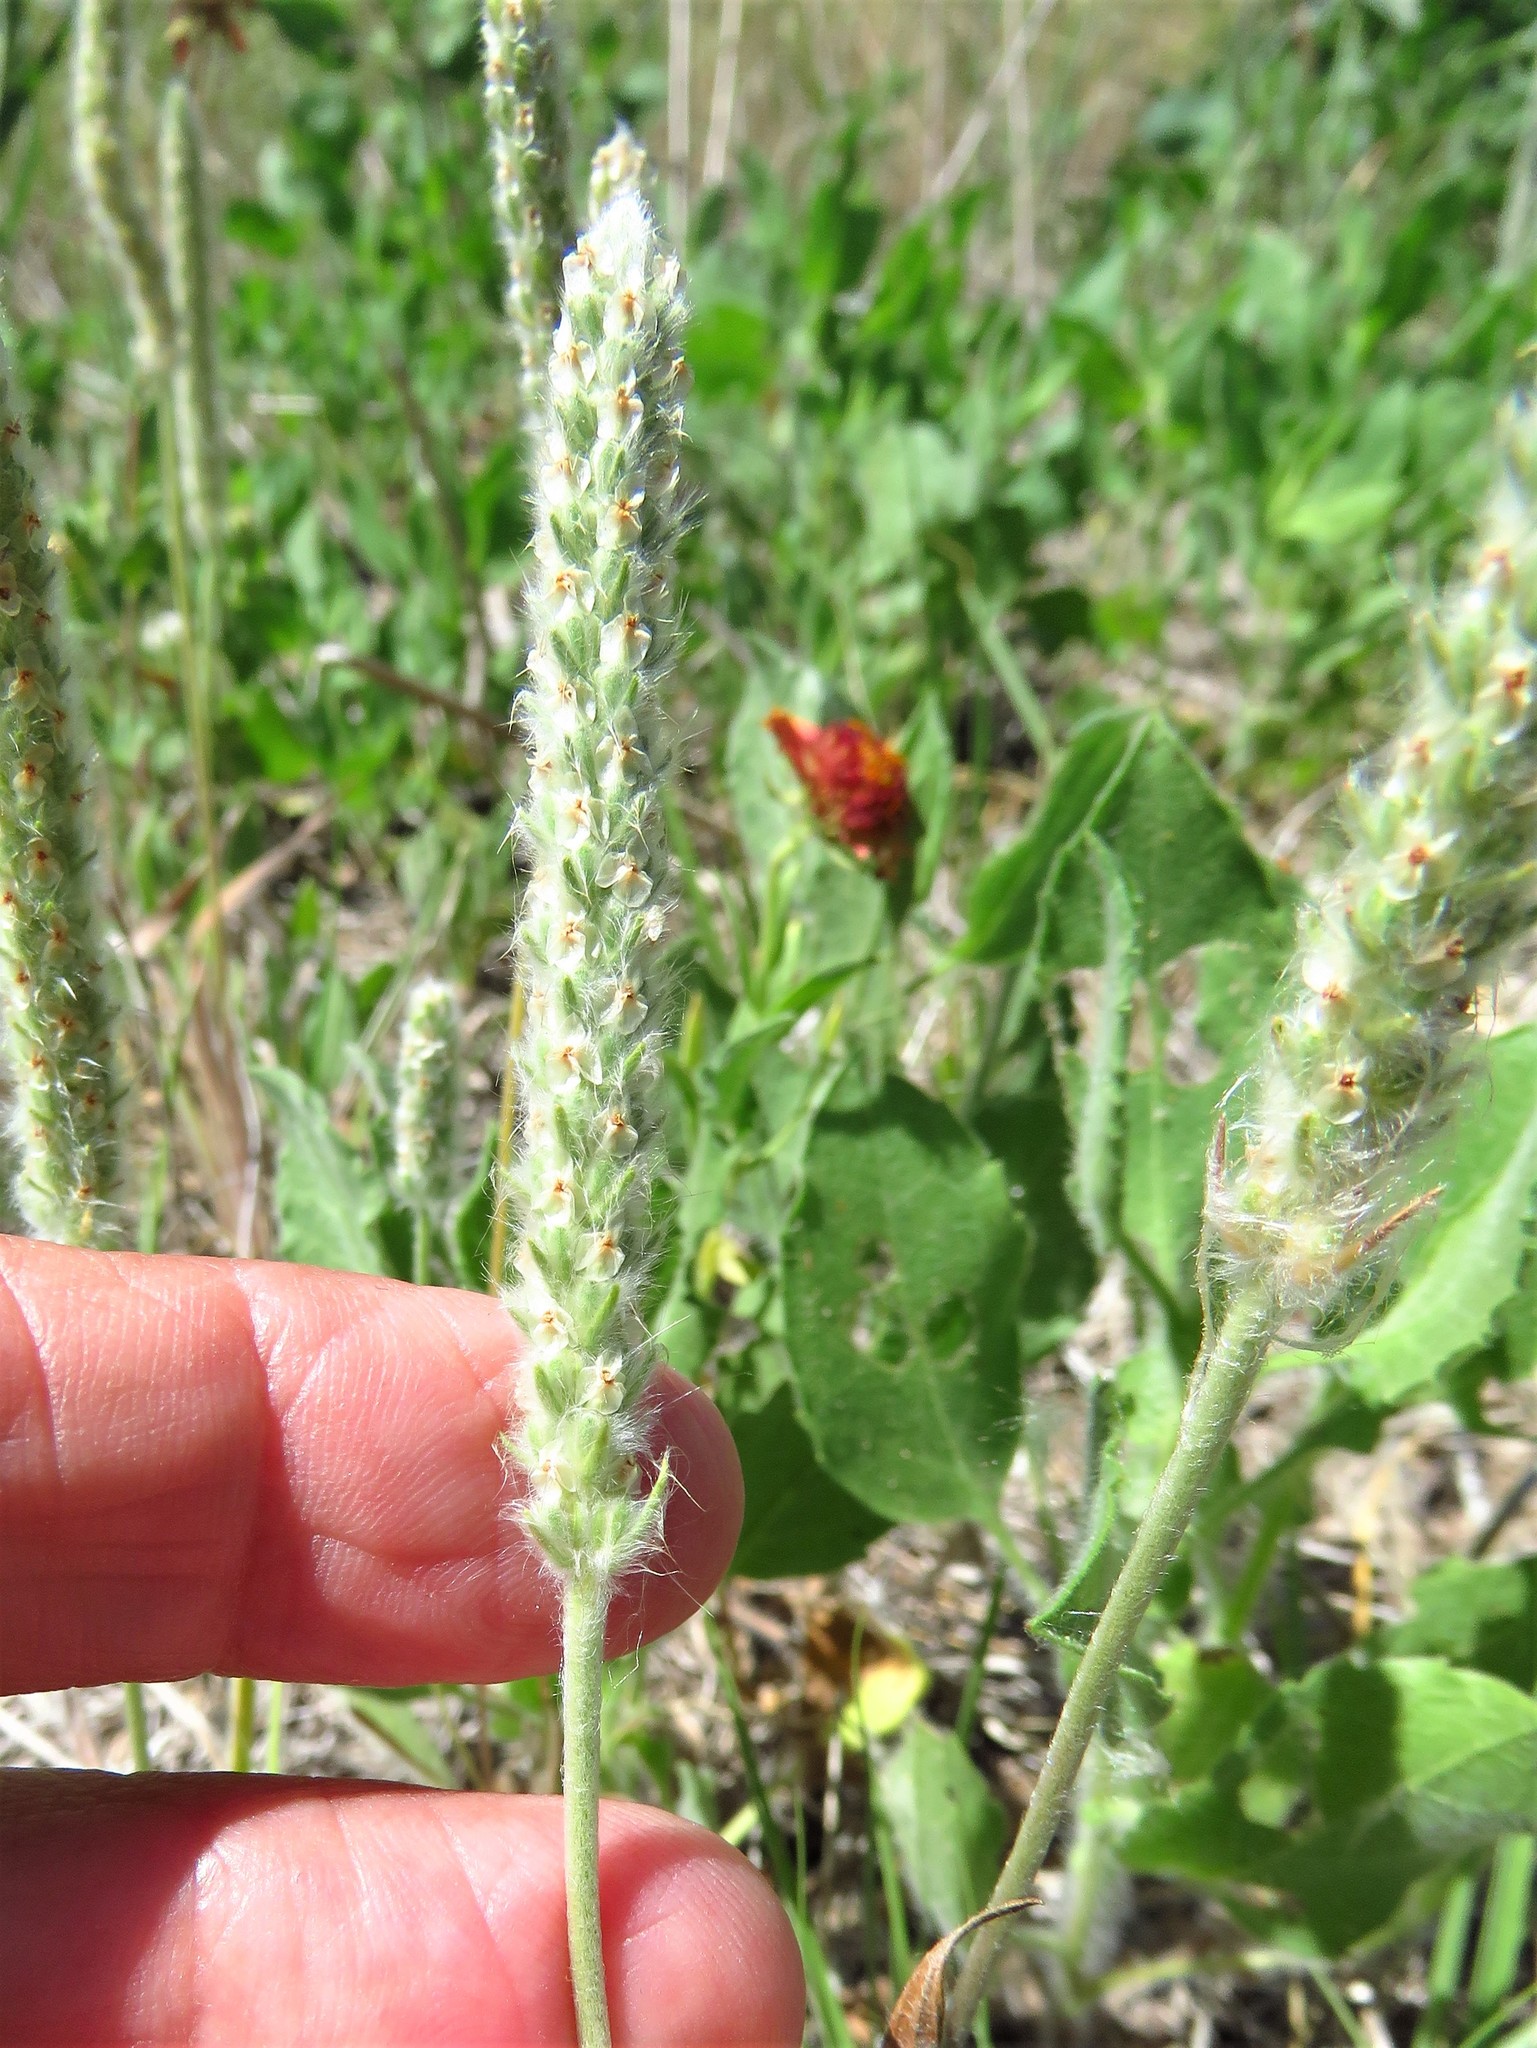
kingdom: Plantae
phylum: Tracheophyta
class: Magnoliopsida
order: Lamiales
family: Plantaginaceae
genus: Plantago
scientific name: Plantago patagonica
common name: Patagonia indian-wheat
